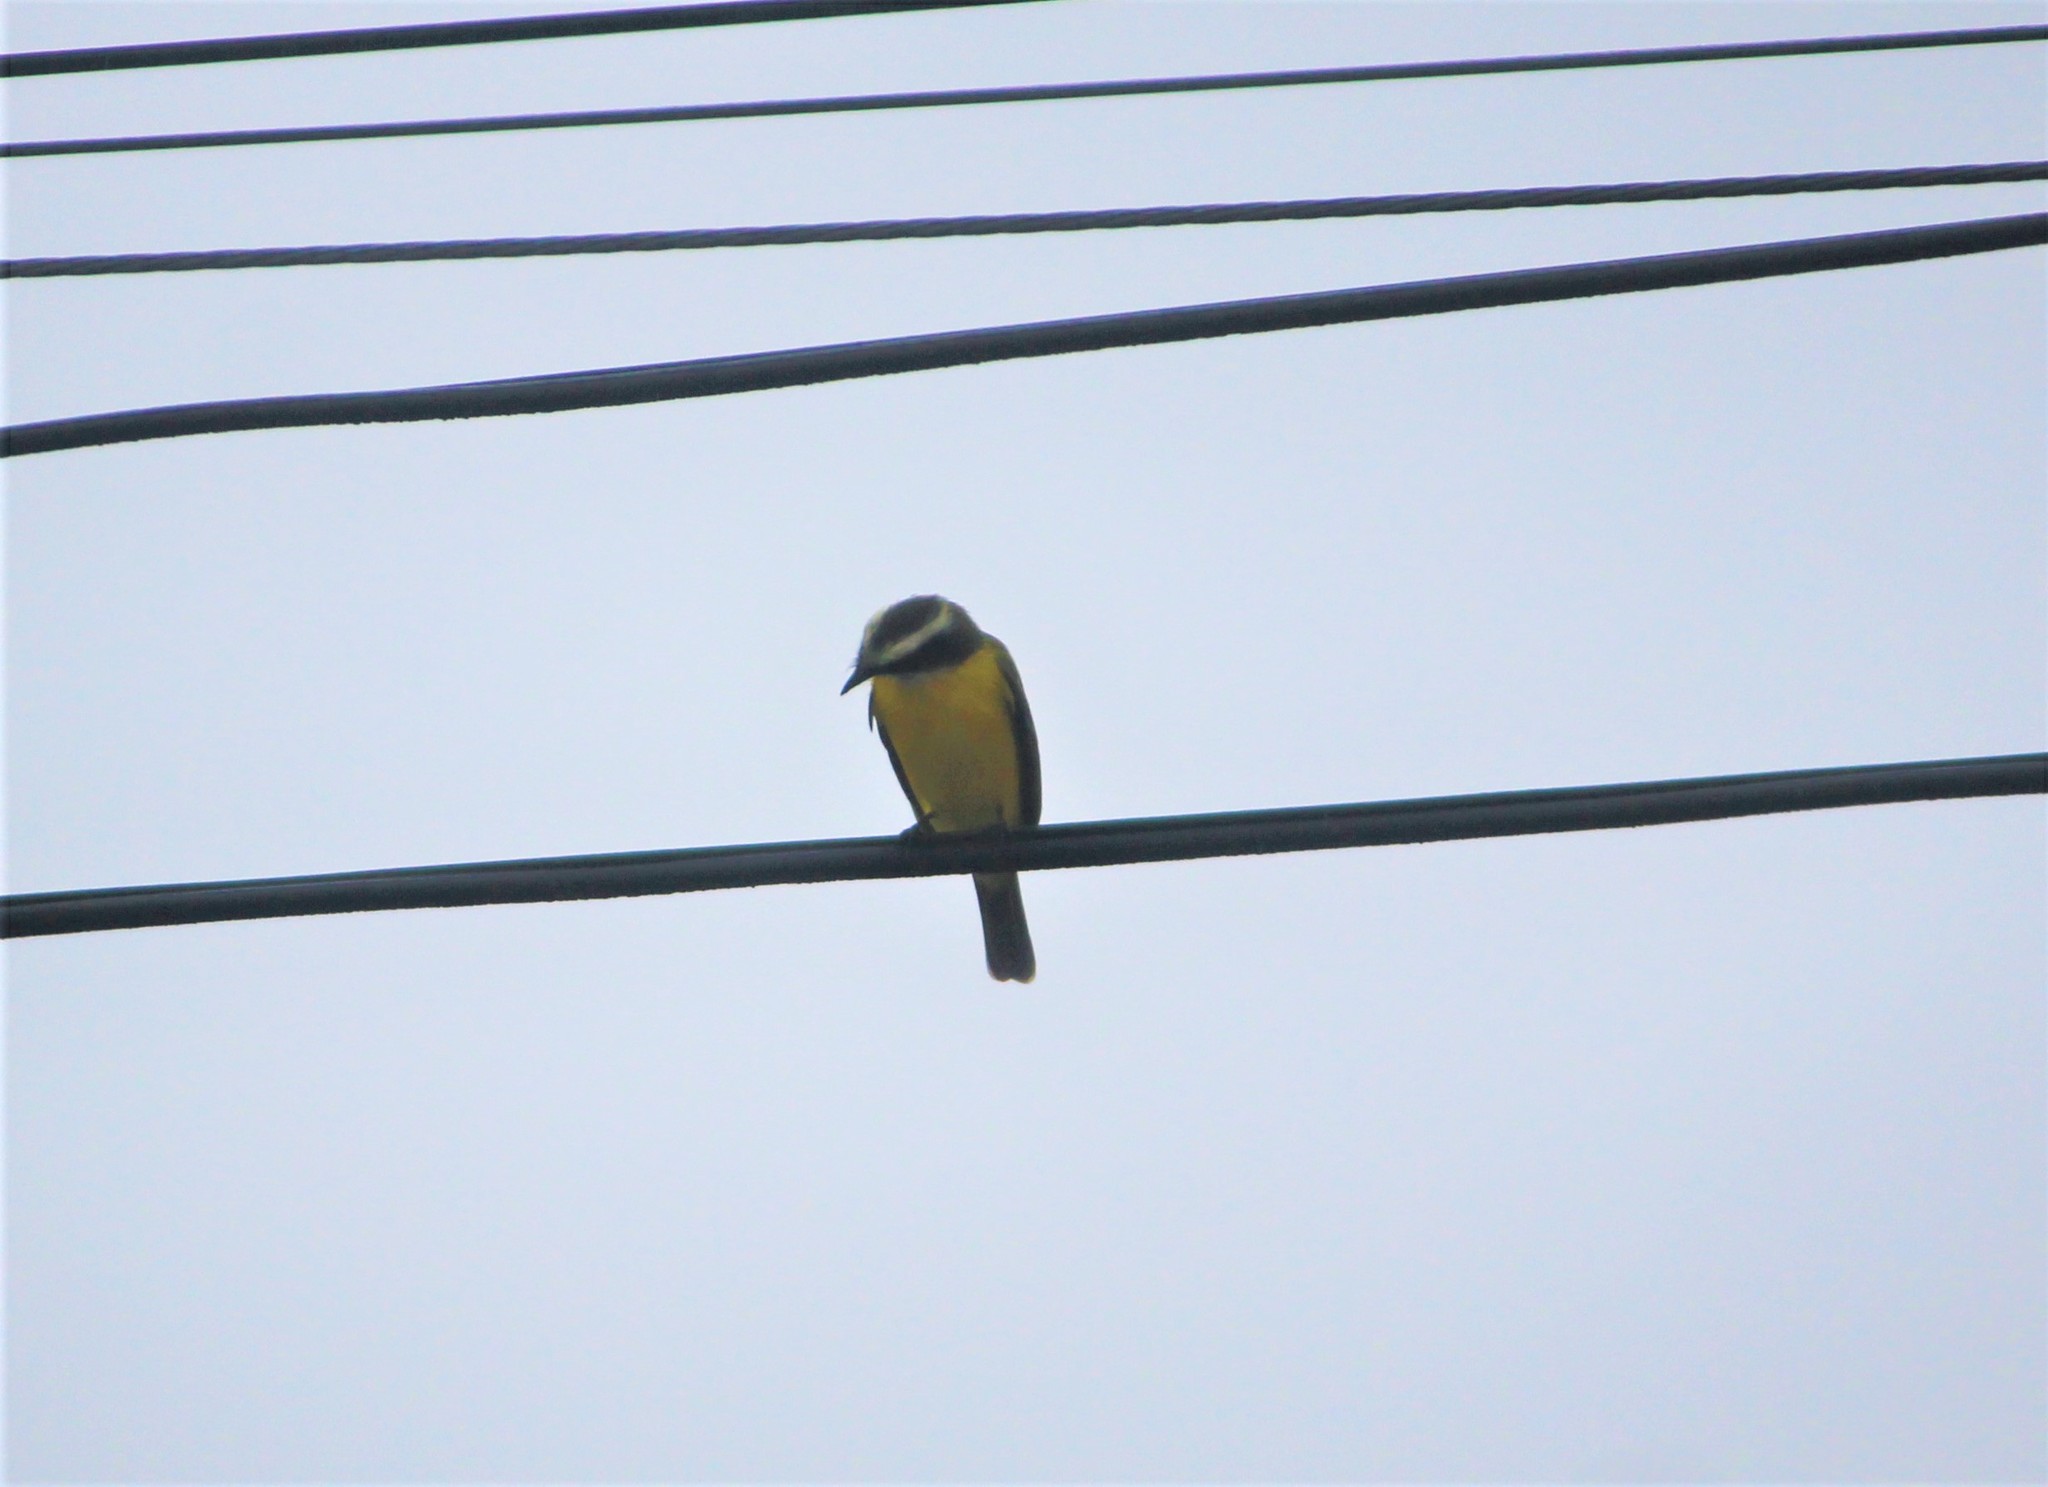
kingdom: Animalia
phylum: Chordata
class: Aves
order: Passeriformes
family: Tyrannidae
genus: Myiozetetes
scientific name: Myiozetetes similis
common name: Social flycatcher
